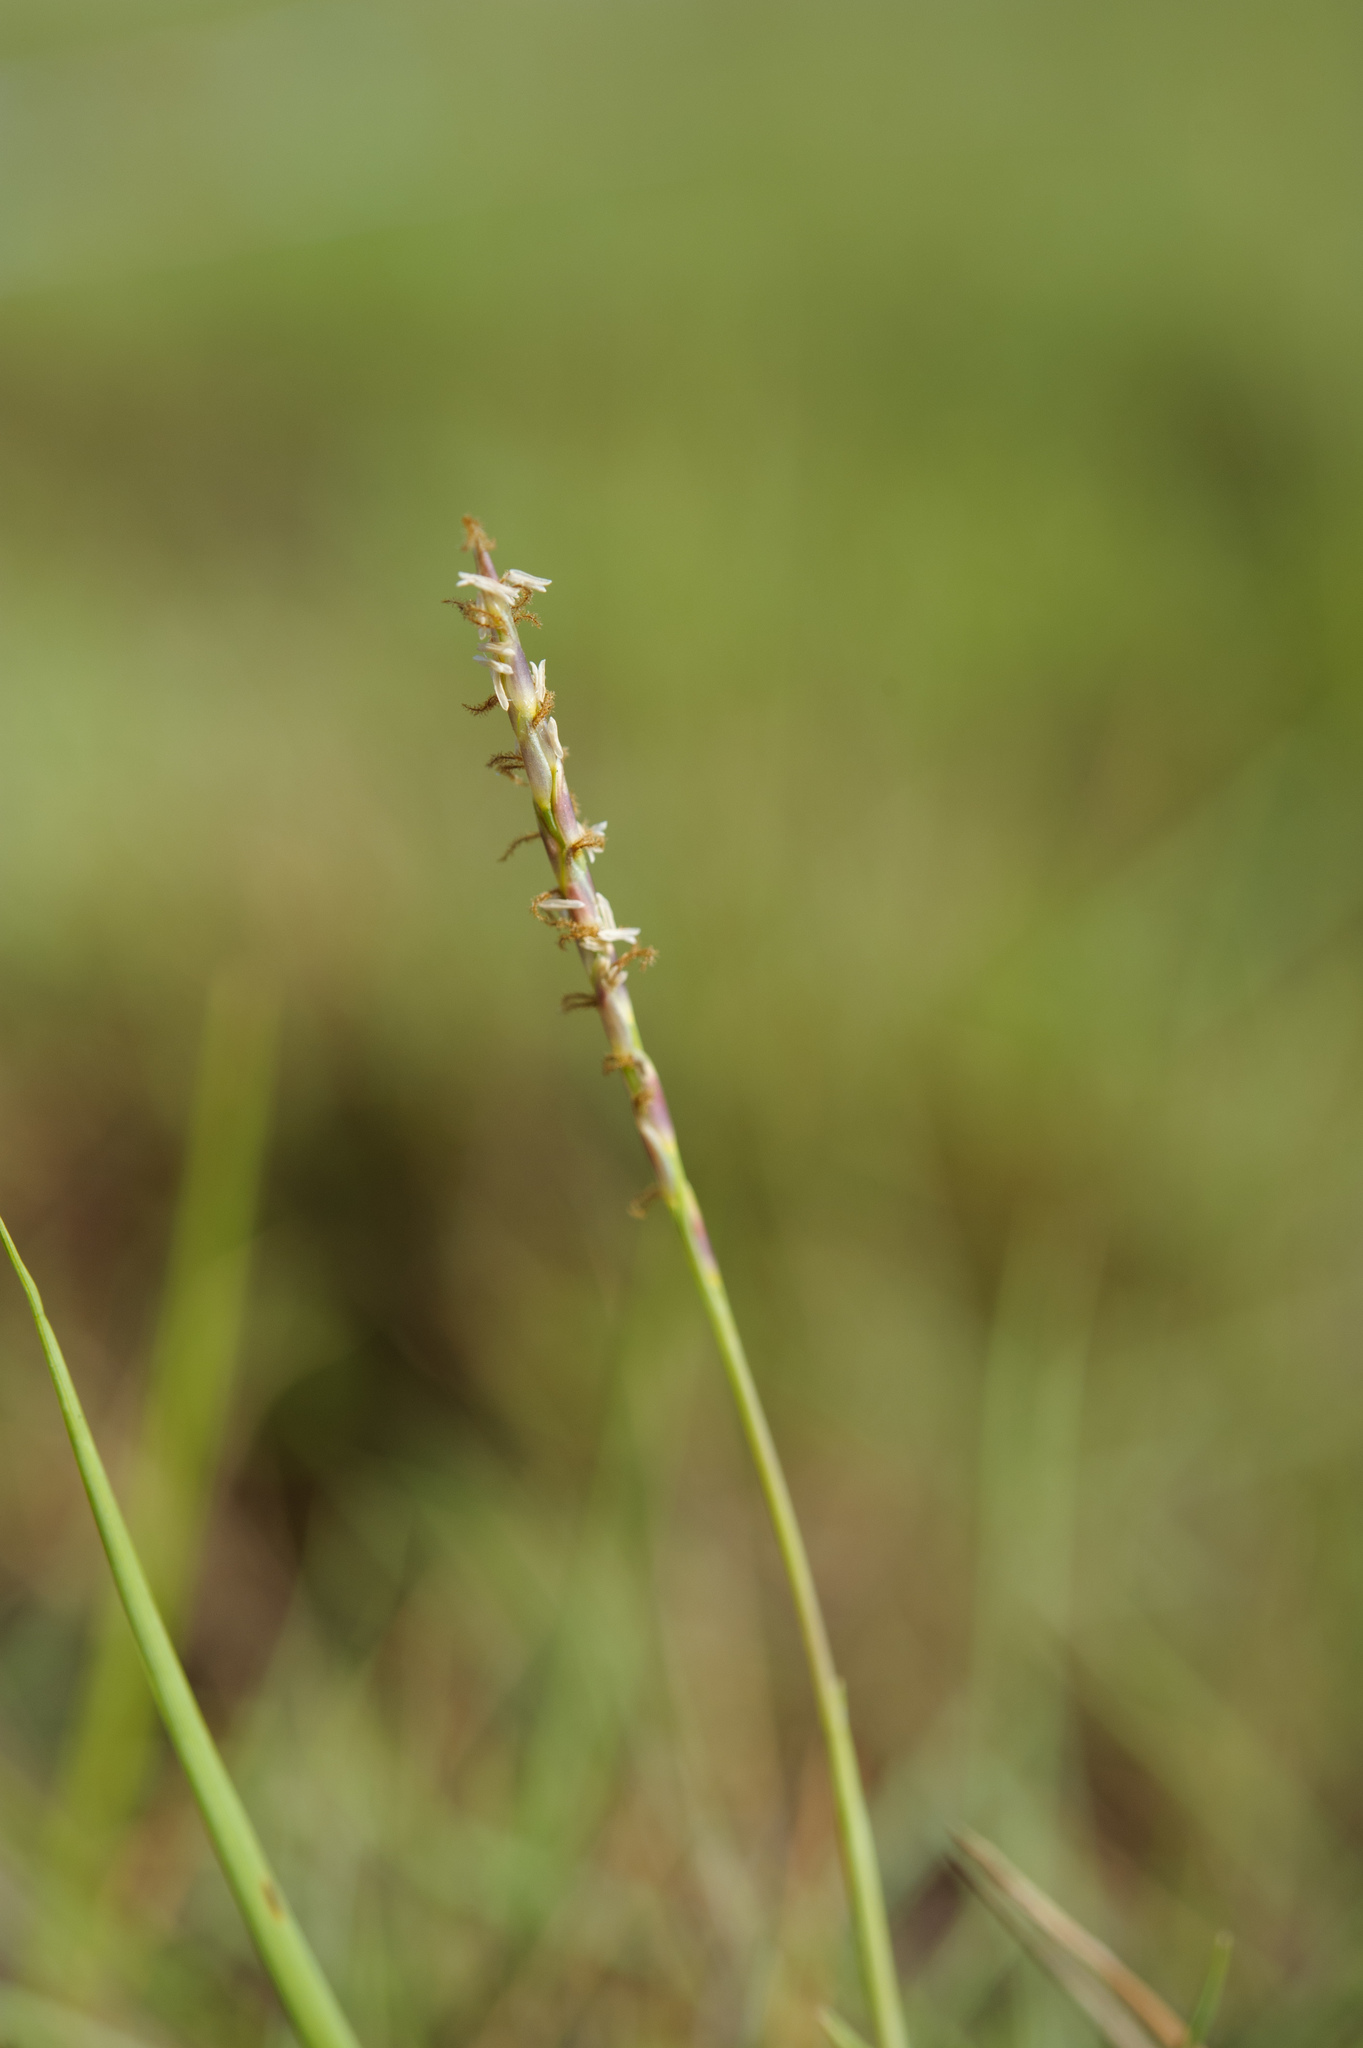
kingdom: Plantae
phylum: Tracheophyta
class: Liliopsida
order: Poales
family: Poaceae
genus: Zoysia
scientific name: Zoysia matrella
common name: Manila grass
